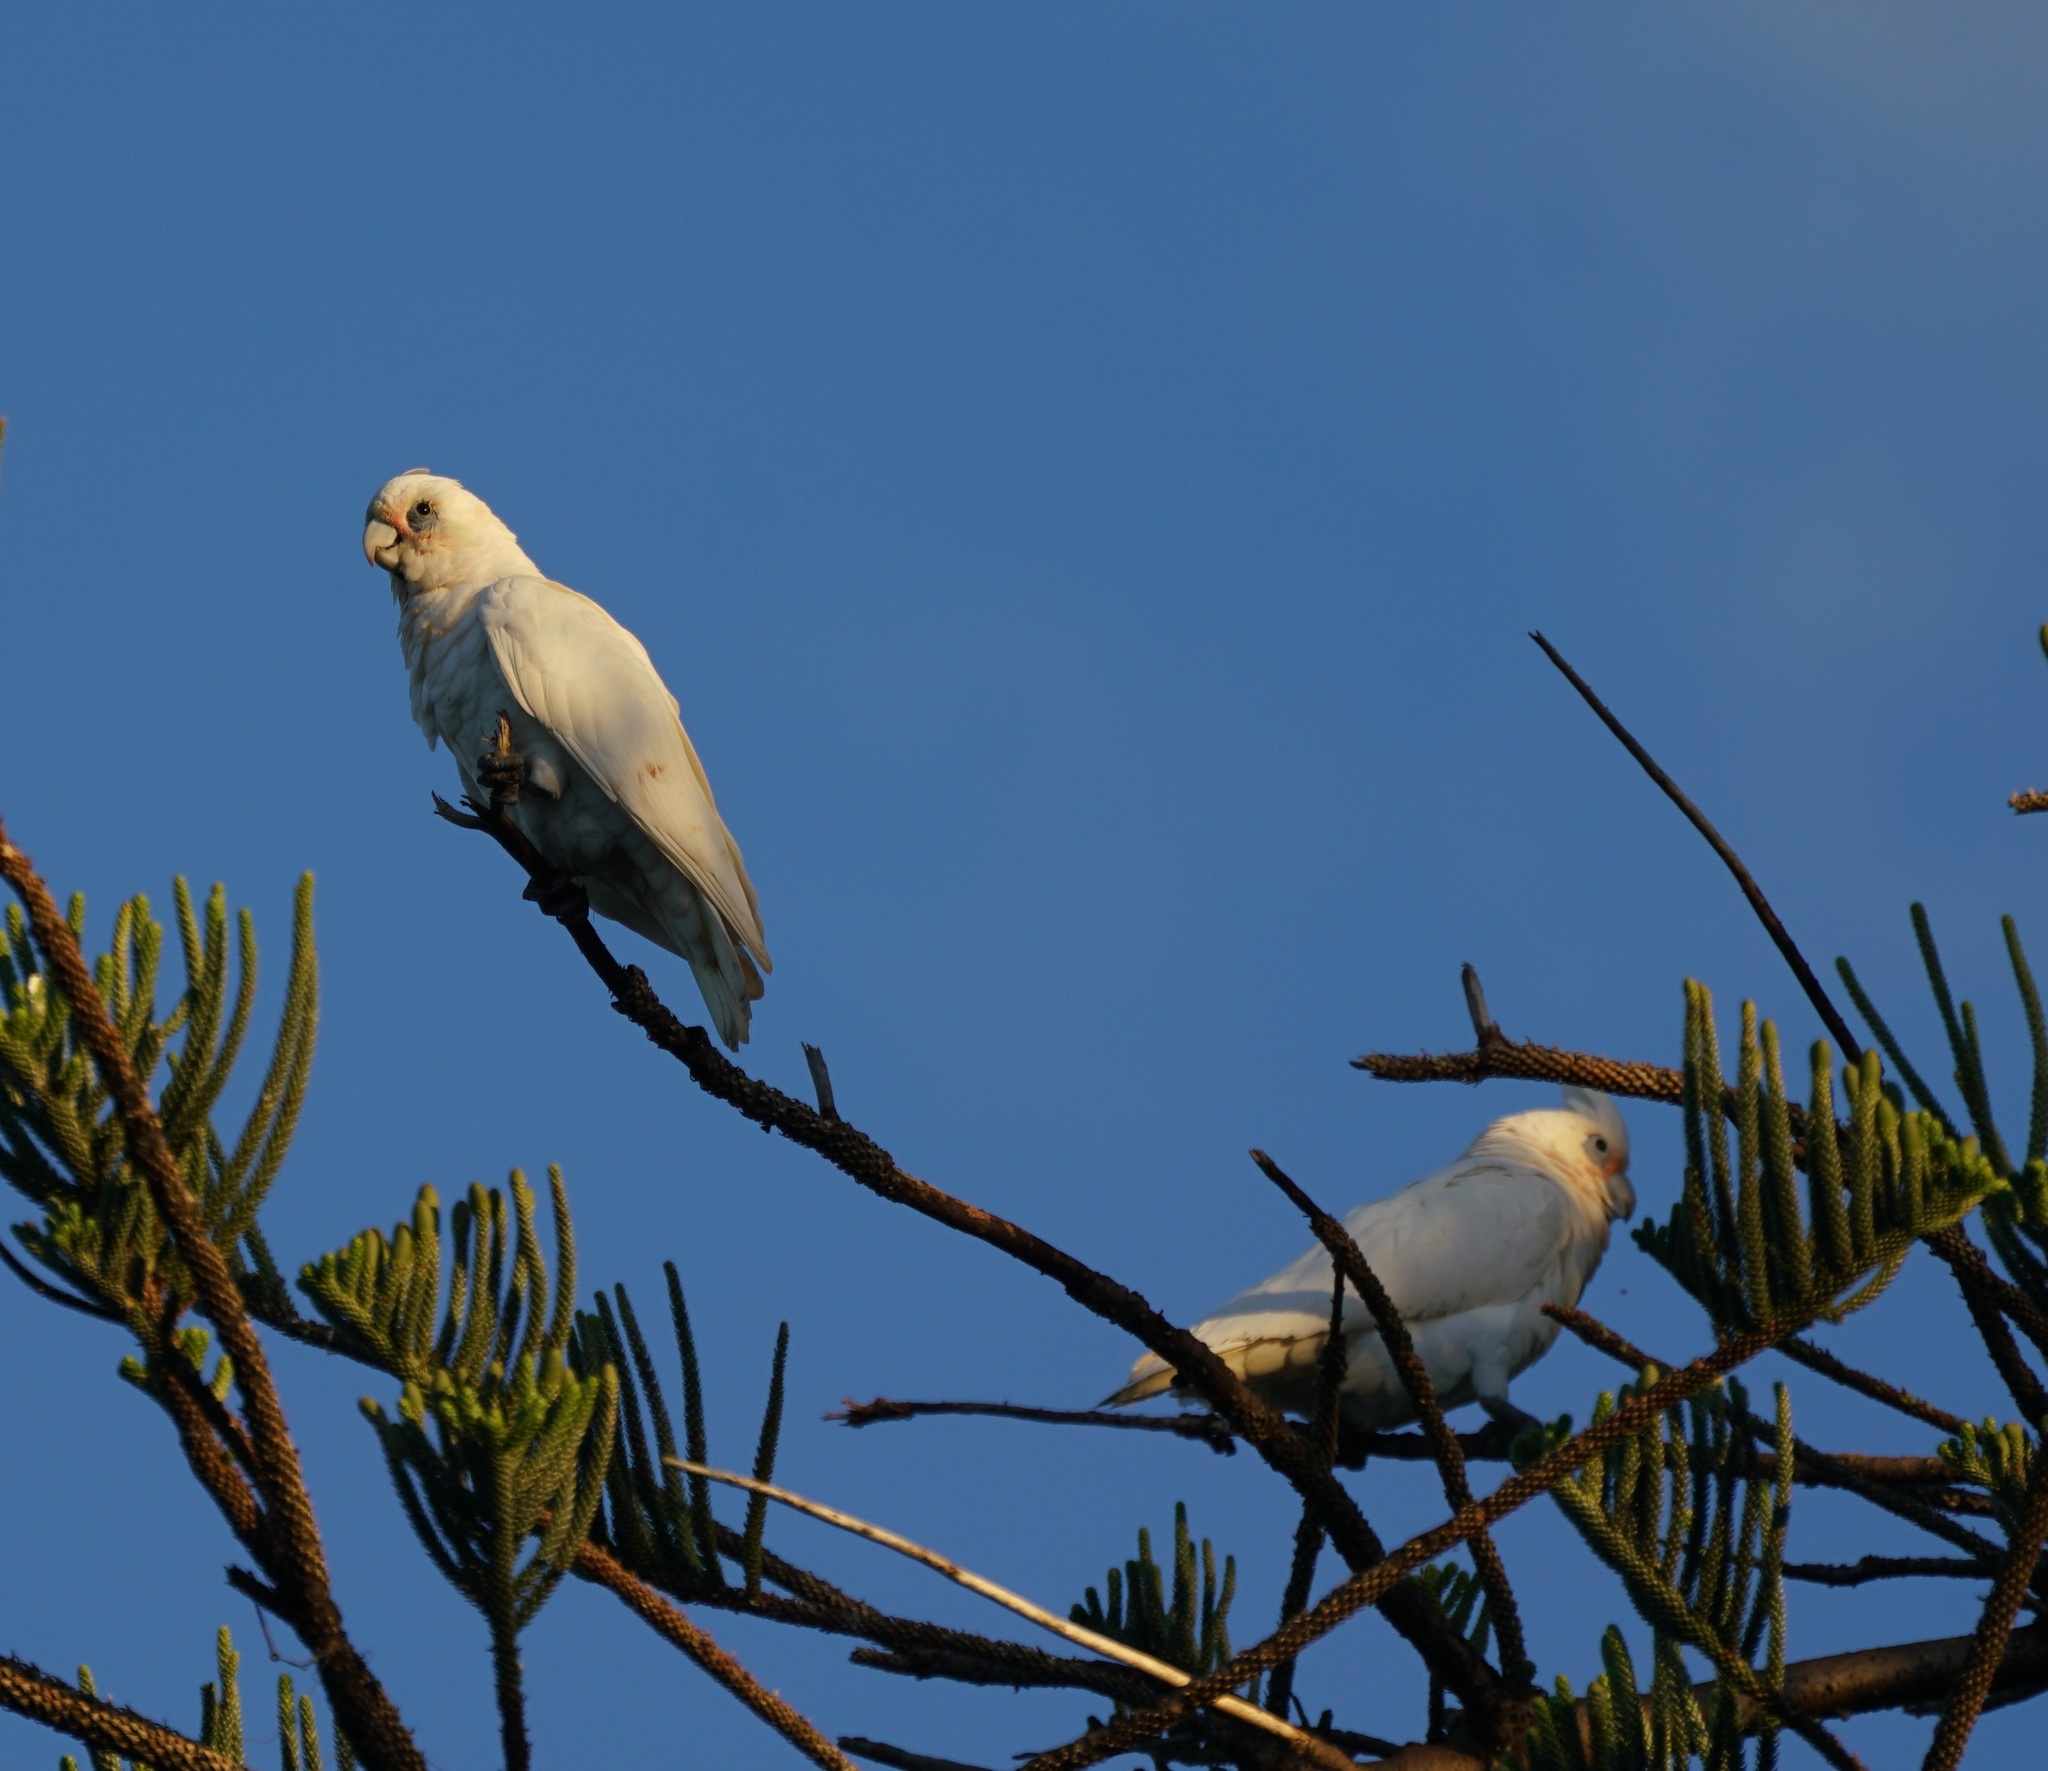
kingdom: Animalia
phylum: Chordata
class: Aves
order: Psittaciformes
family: Psittacidae
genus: Cacatua
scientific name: Cacatua sanguinea
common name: Little corella
